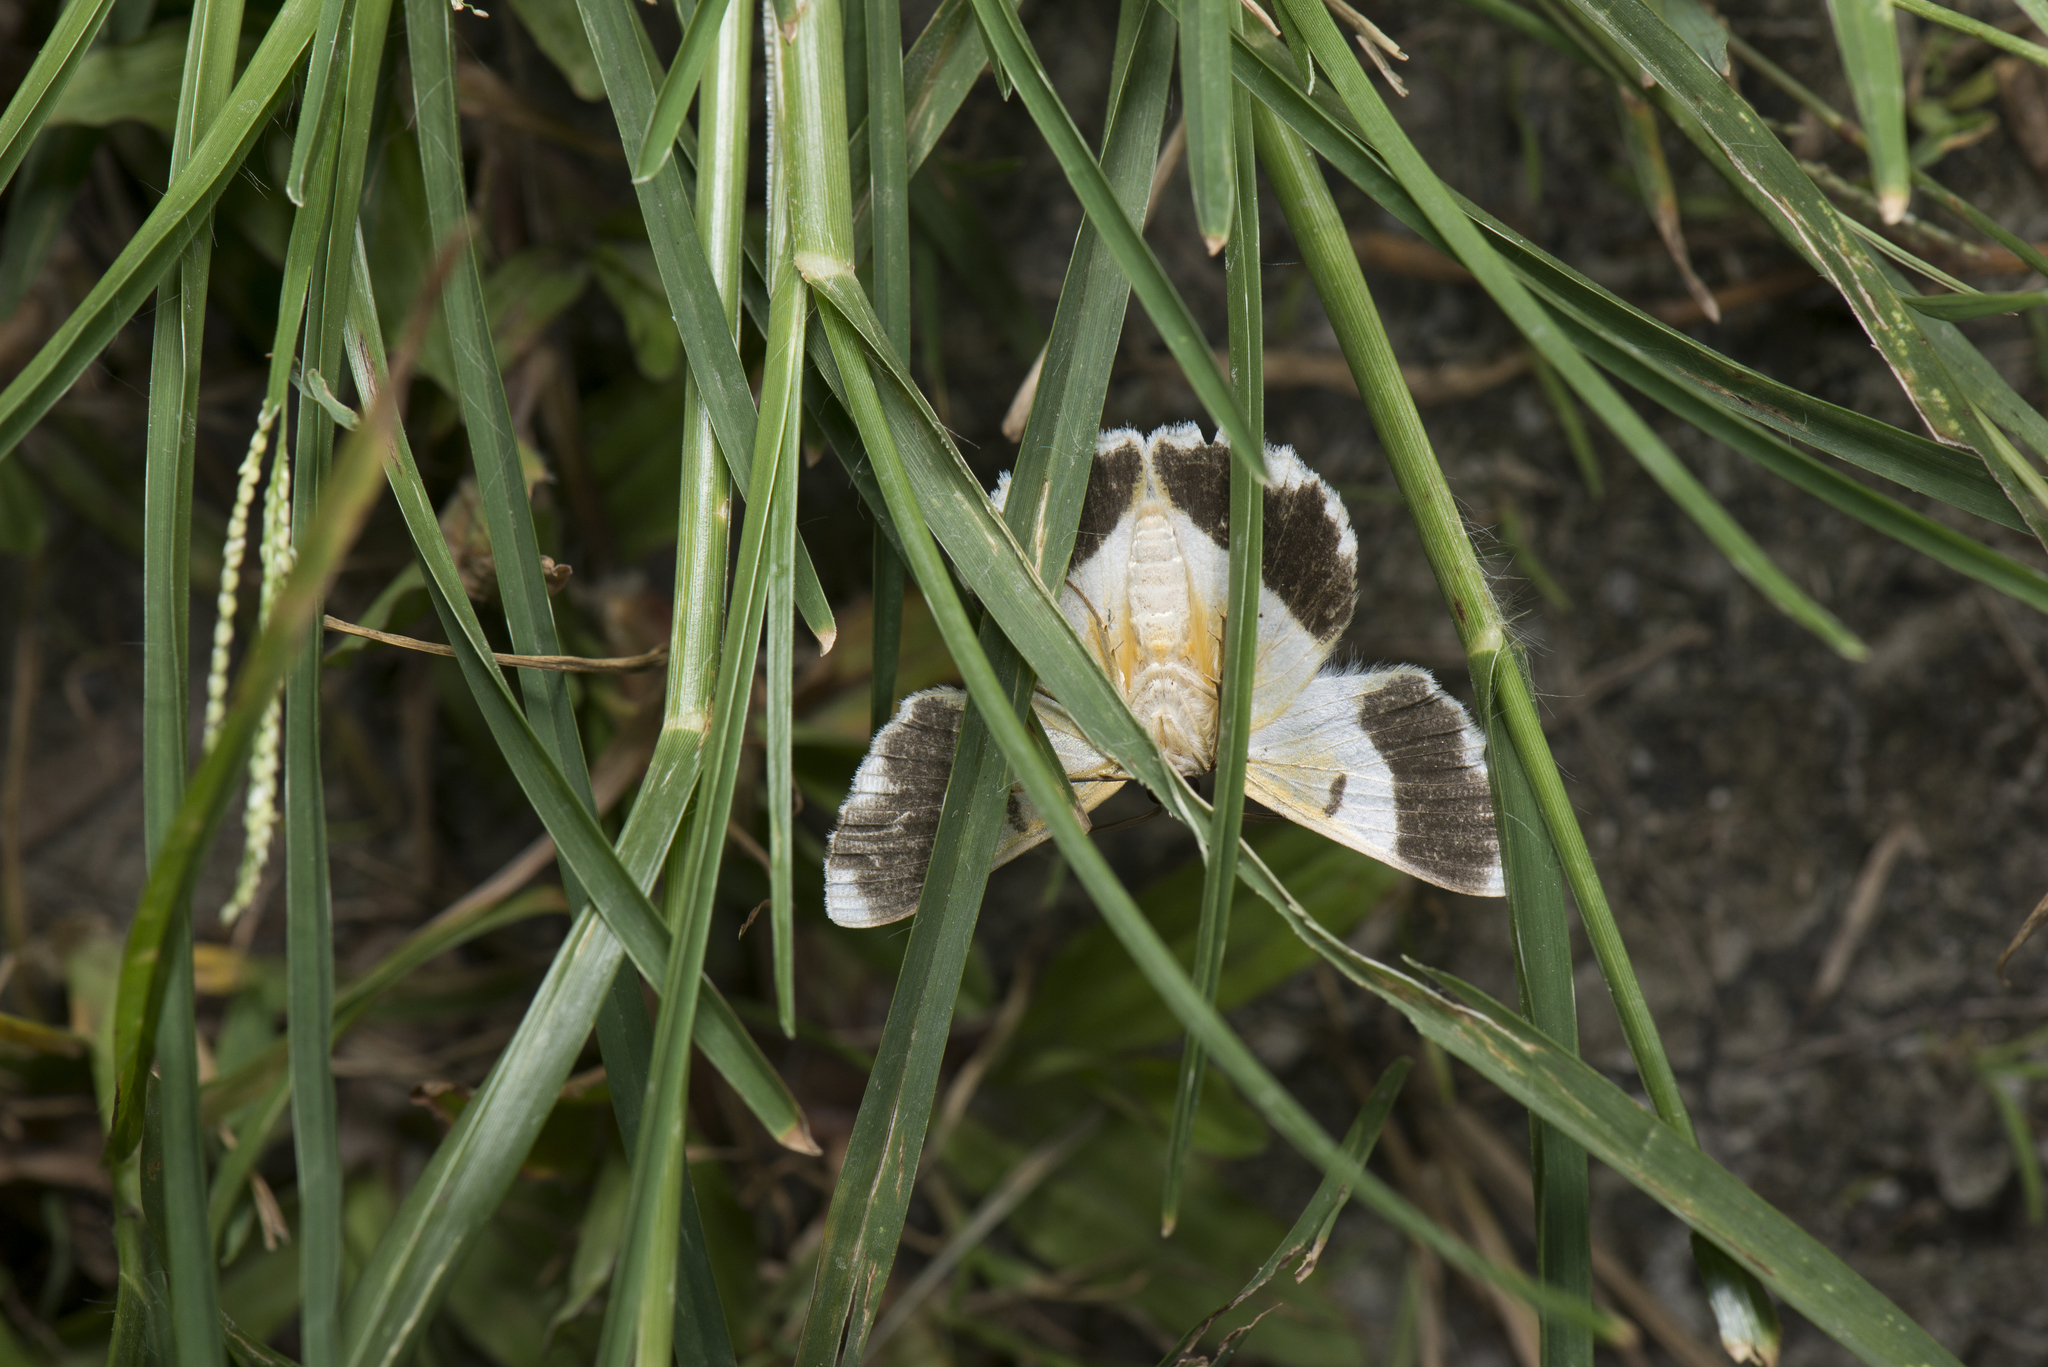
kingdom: Animalia
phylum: Arthropoda
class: Insecta
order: Lepidoptera
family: Geometridae
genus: Pingasa
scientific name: Pingasa ruginaria
